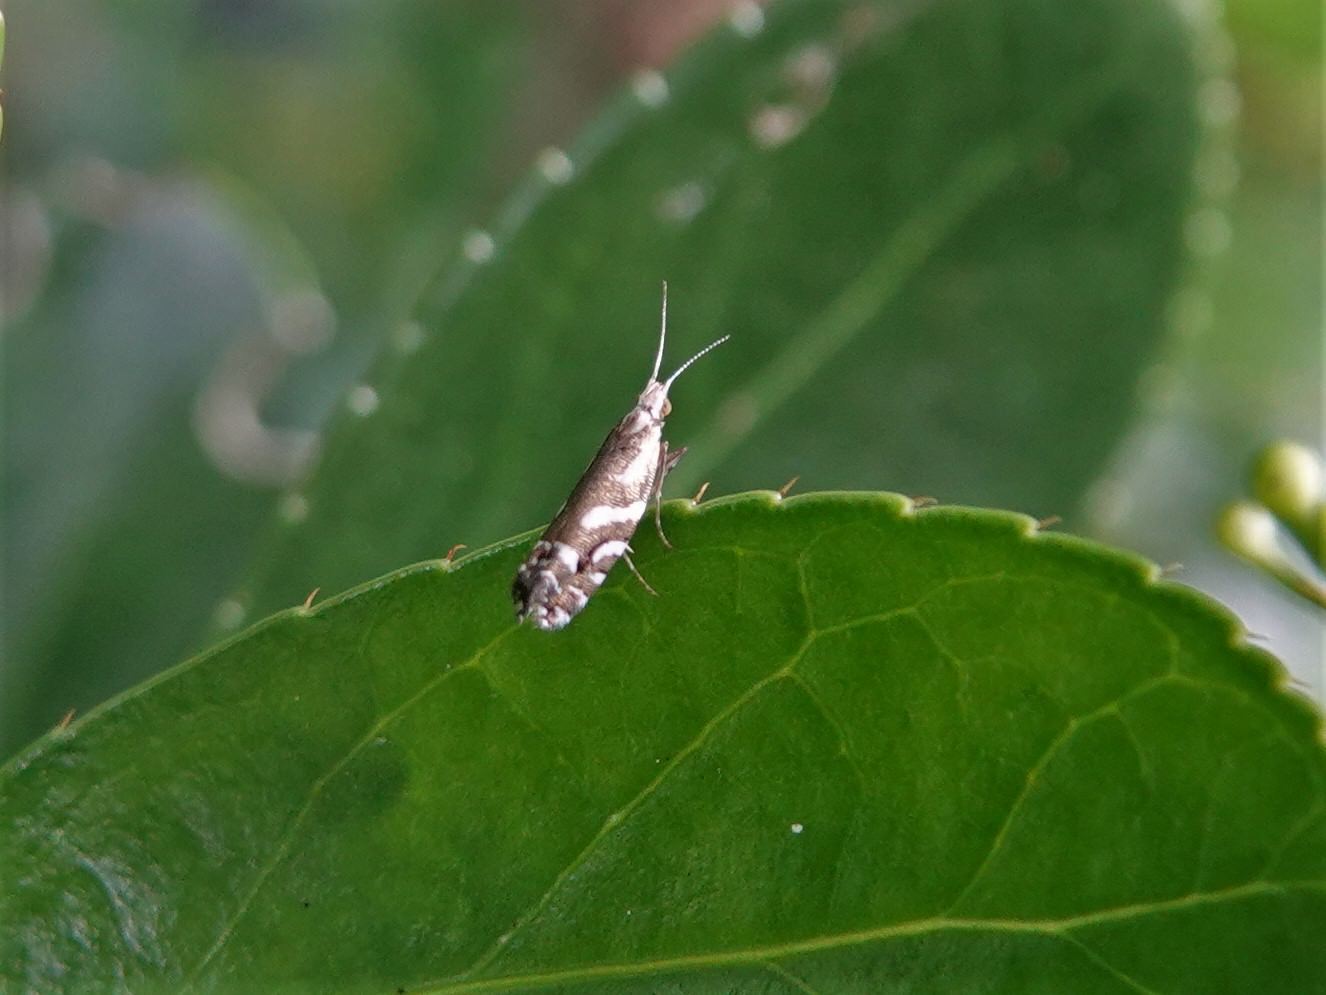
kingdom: Animalia
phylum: Arthropoda
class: Insecta
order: Lepidoptera
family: Glyphipterigidae
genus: Chrysorthenches
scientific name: Chrysorthenches glypharcha
